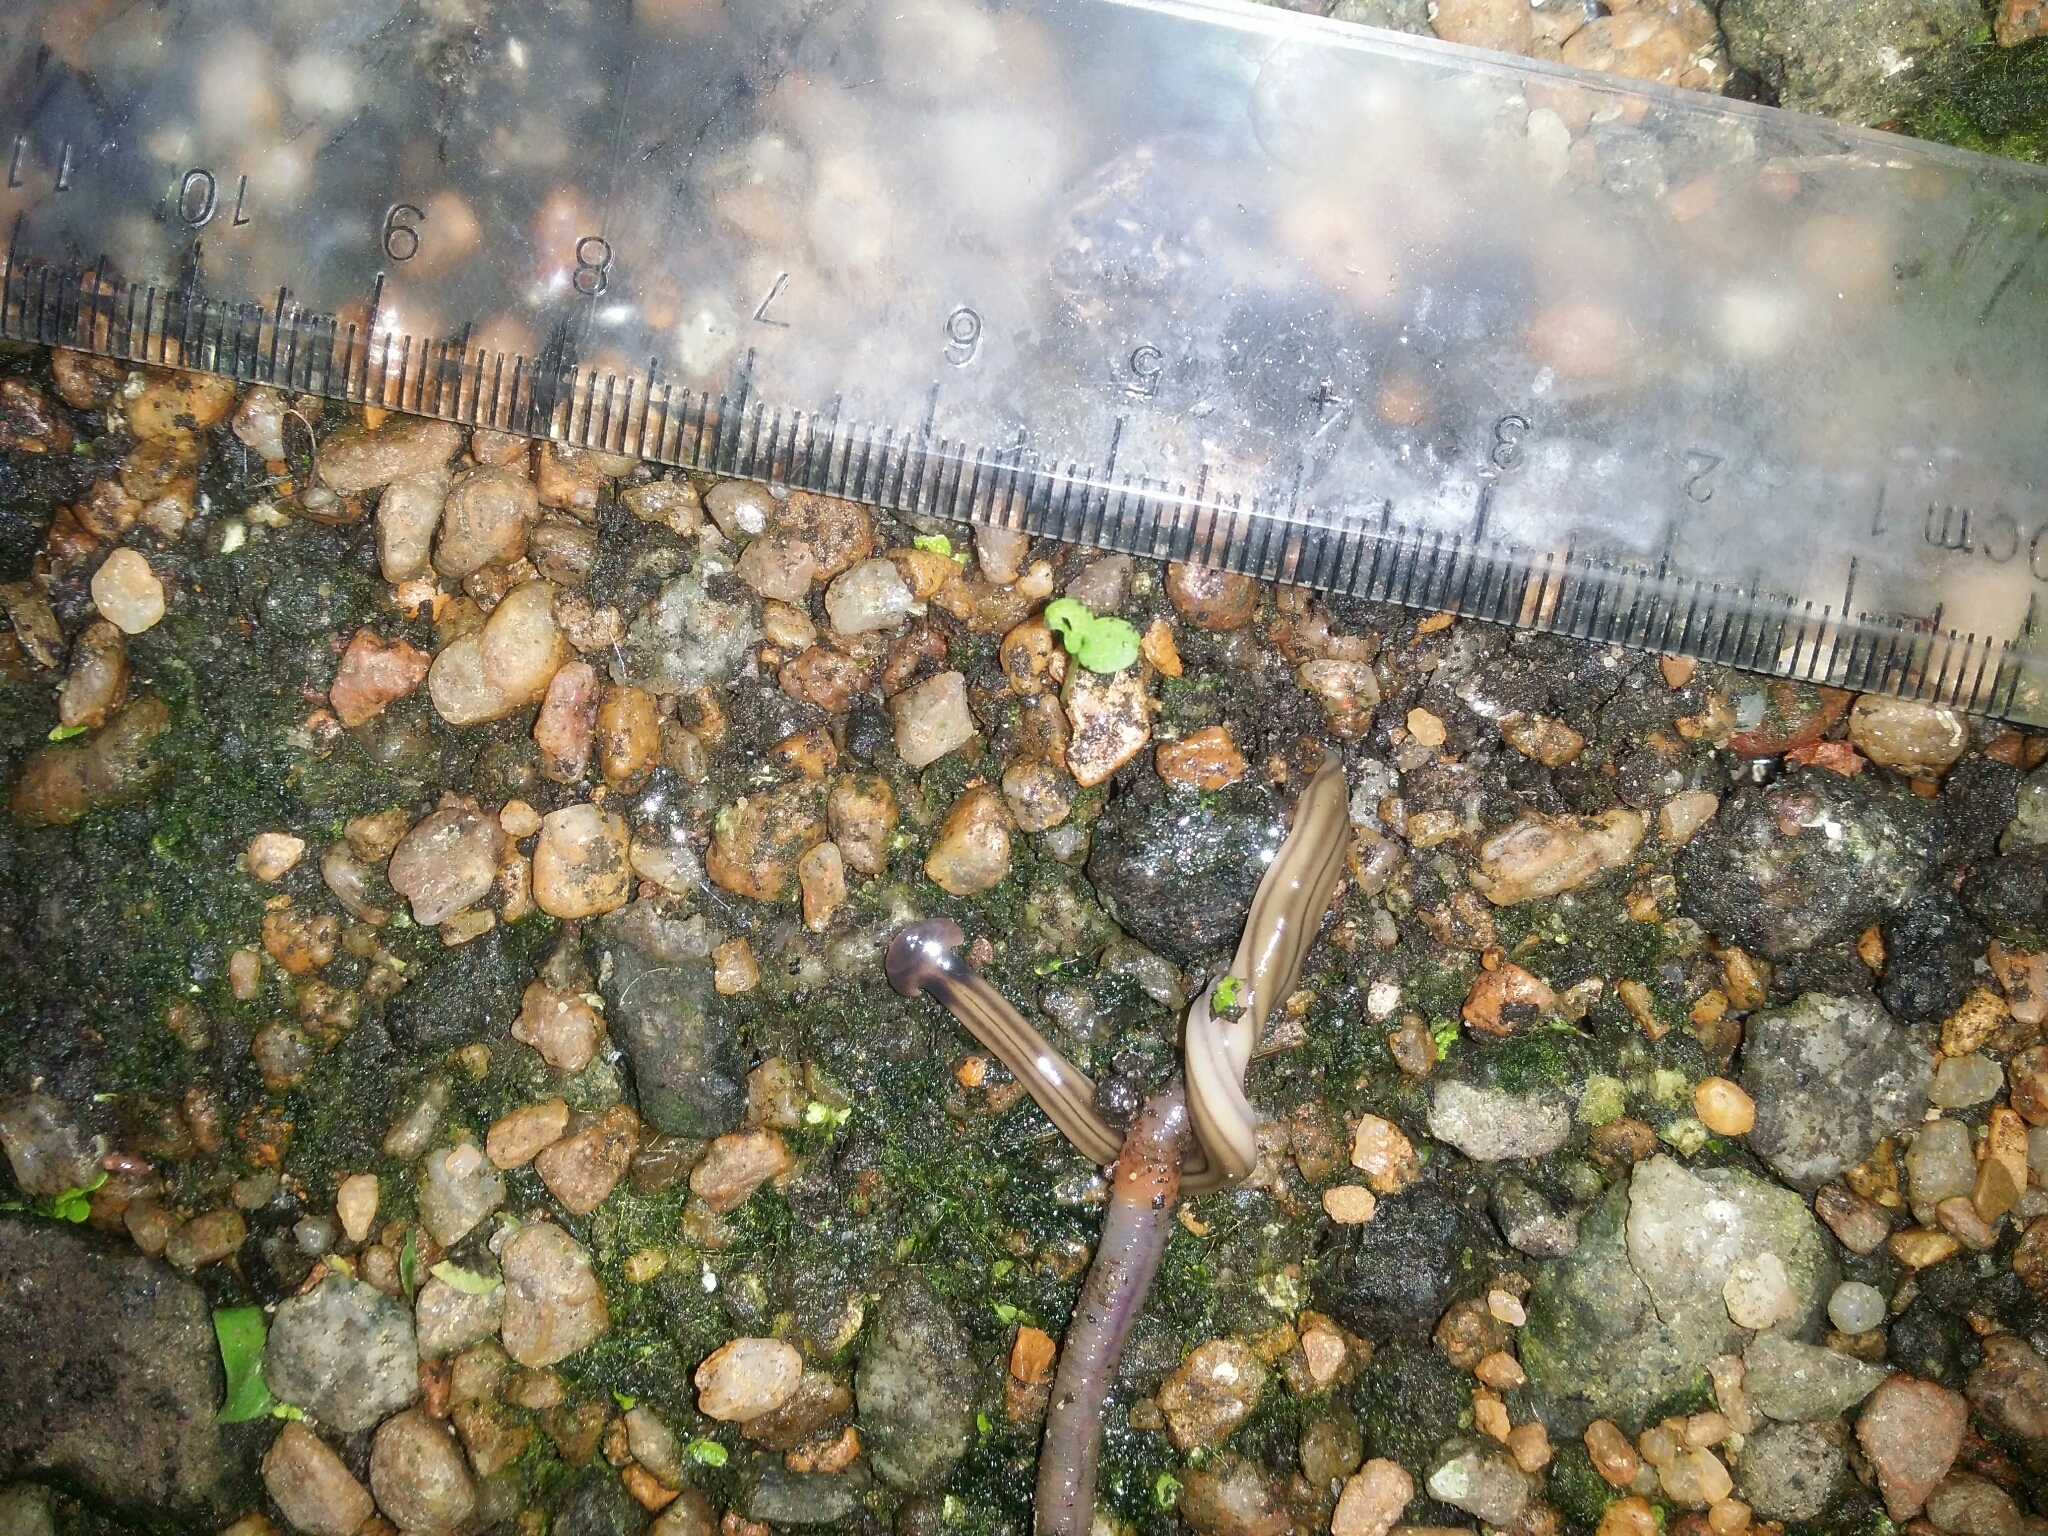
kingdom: Animalia
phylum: Platyhelminthes
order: Tricladida
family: Geoplanidae
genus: Bipalium
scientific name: Bipalium kewense
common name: Hammerhead flatworm
